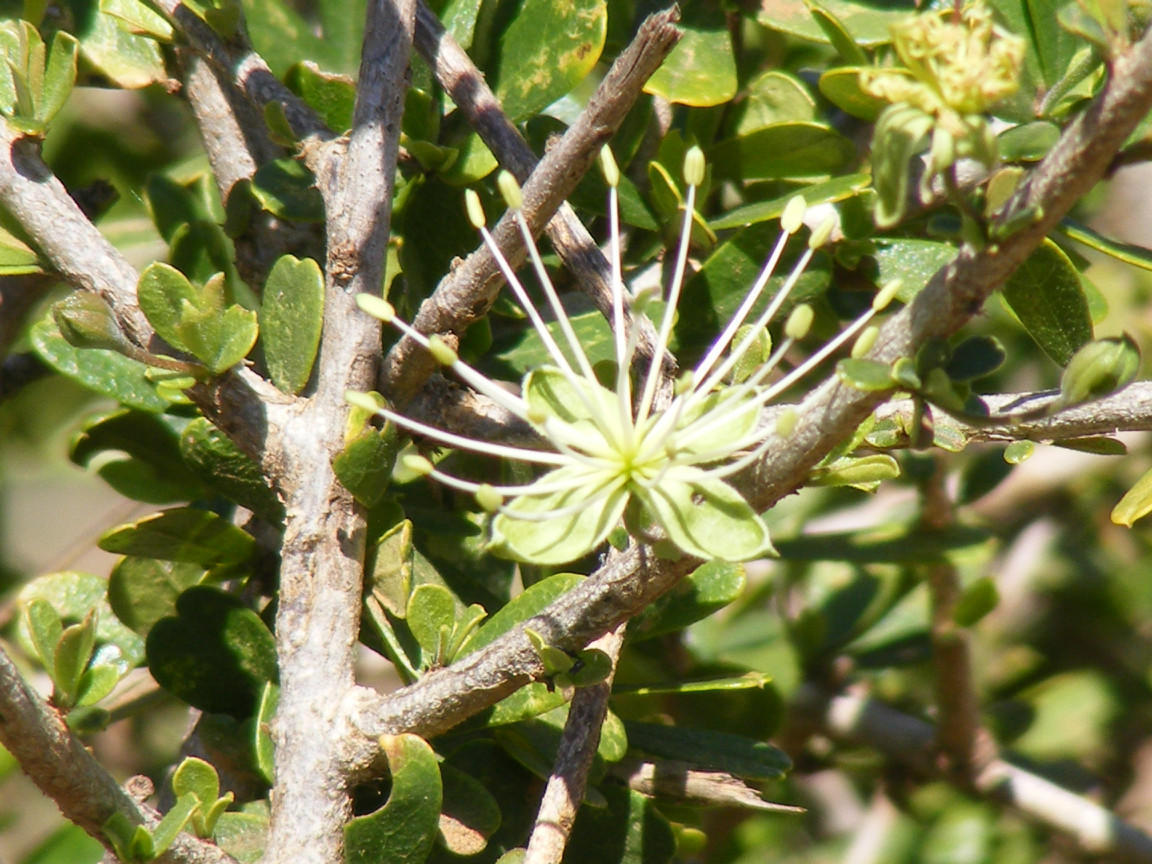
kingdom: Plantae
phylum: Tracheophyta
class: Magnoliopsida
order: Brassicales
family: Capparaceae
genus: Maerua
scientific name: Maerua parvifolia
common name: Dwarf bush-cherry
